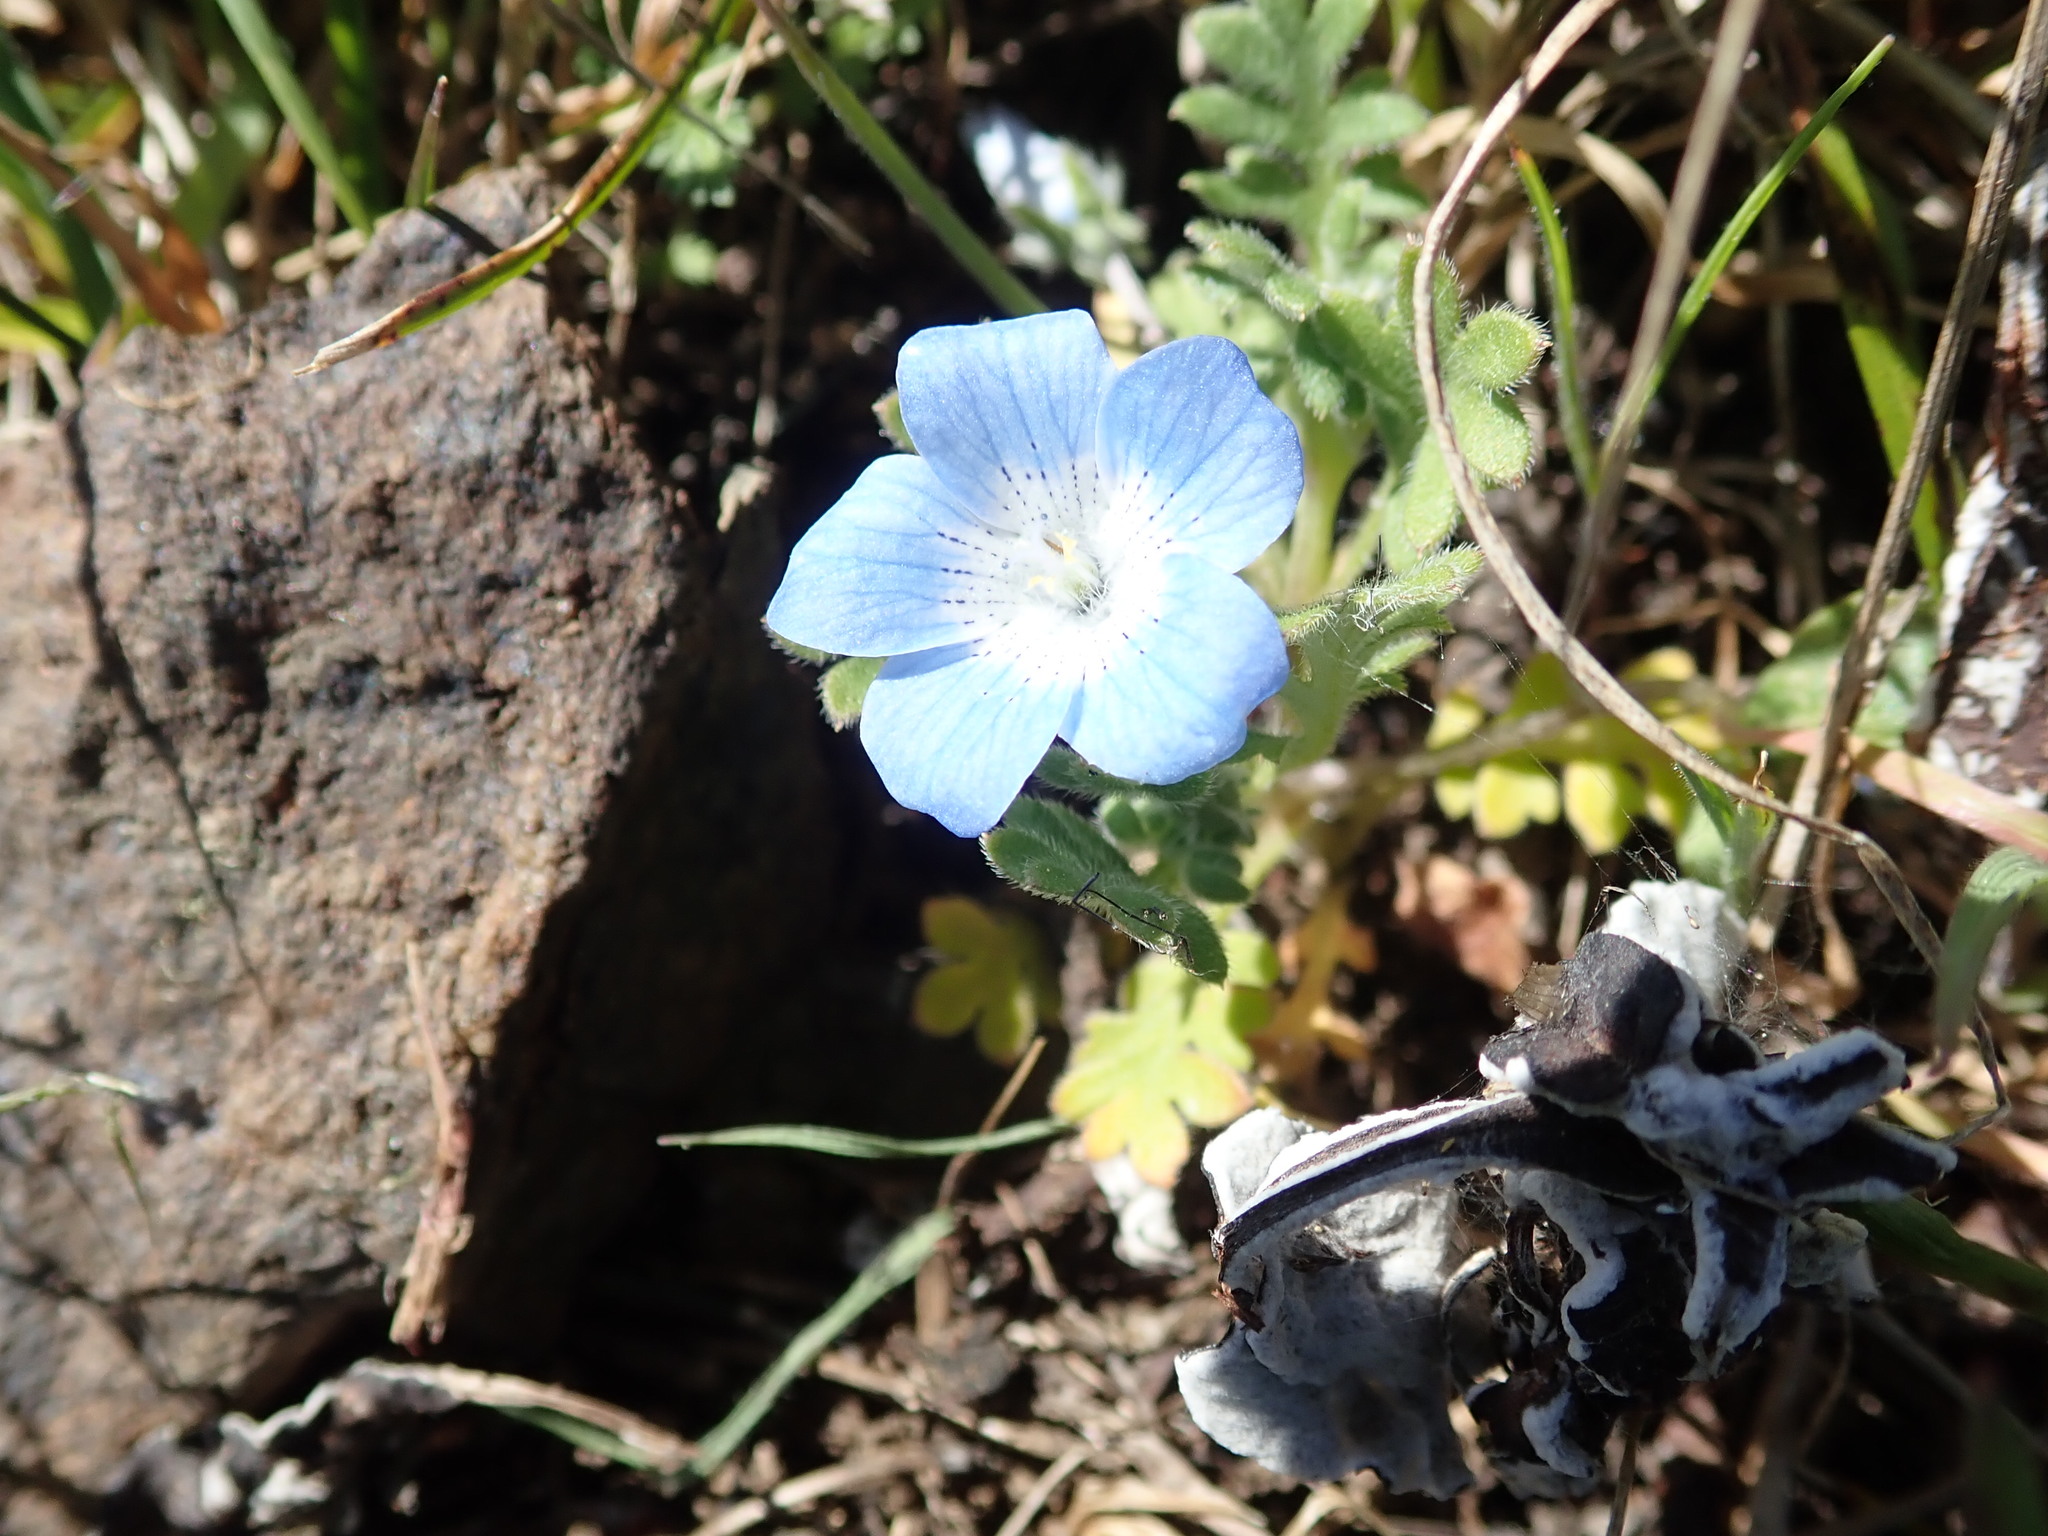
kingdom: Plantae
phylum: Tracheophyta
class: Magnoliopsida
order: Boraginales
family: Hydrophyllaceae
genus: Nemophila
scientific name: Nemophila menziesii
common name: Baby's-blue-eyes
